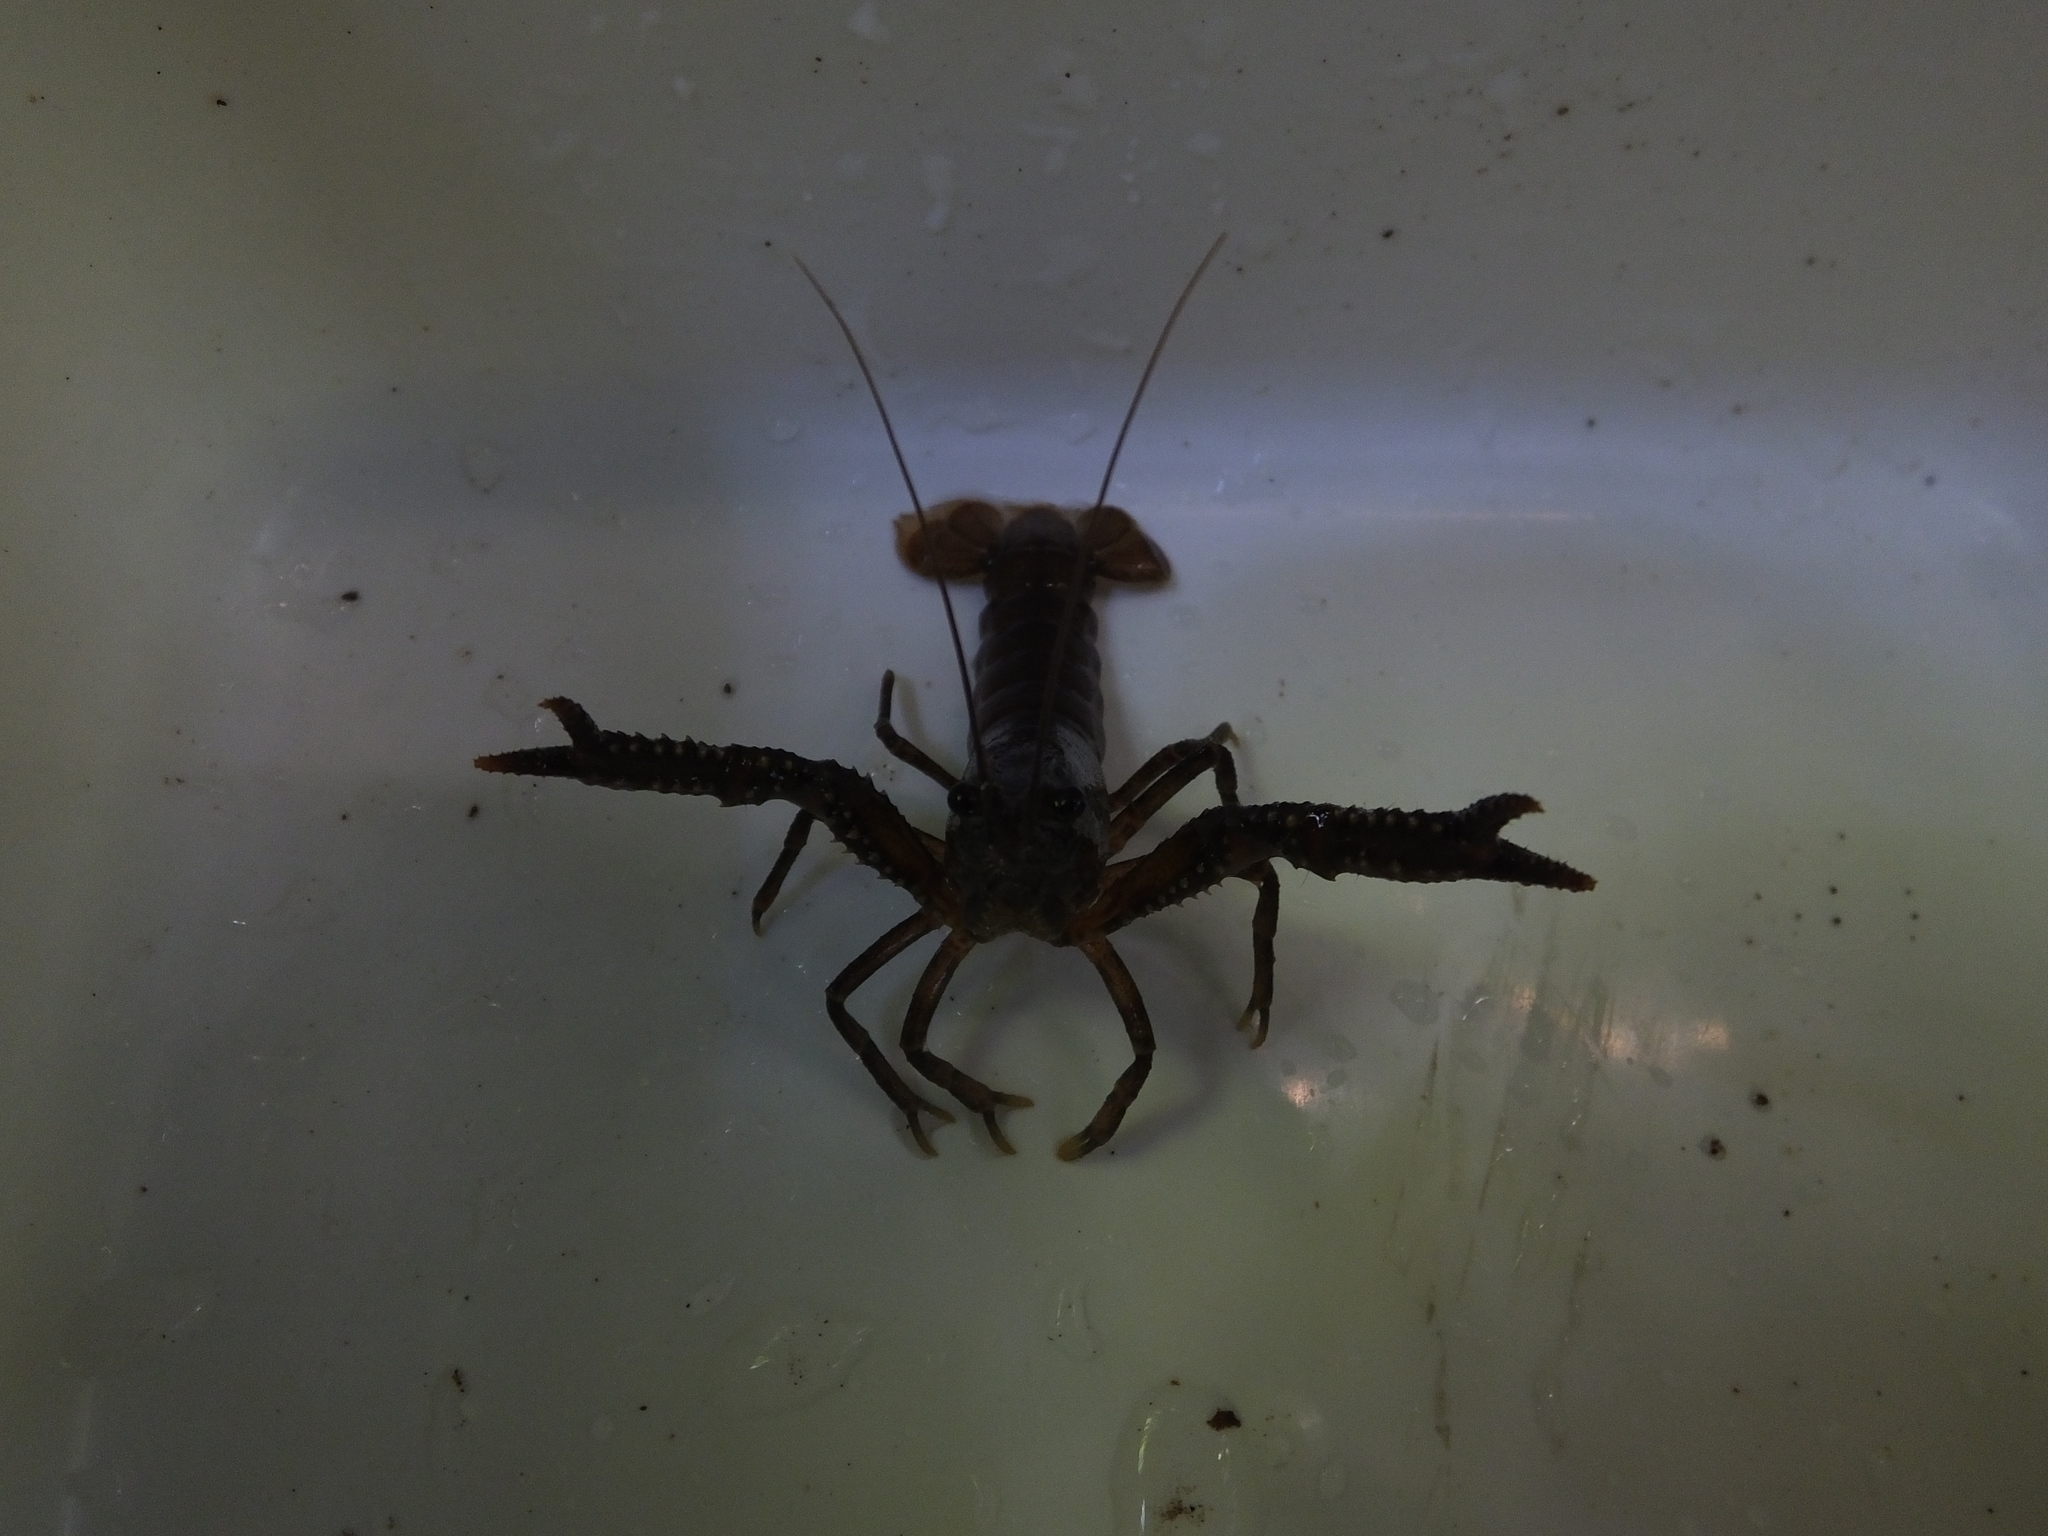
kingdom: Animalia
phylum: Arthropoda
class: Malacostraca
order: Decapoda
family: Parastacidae
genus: Paranephrops
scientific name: Paranephrops planifrons
